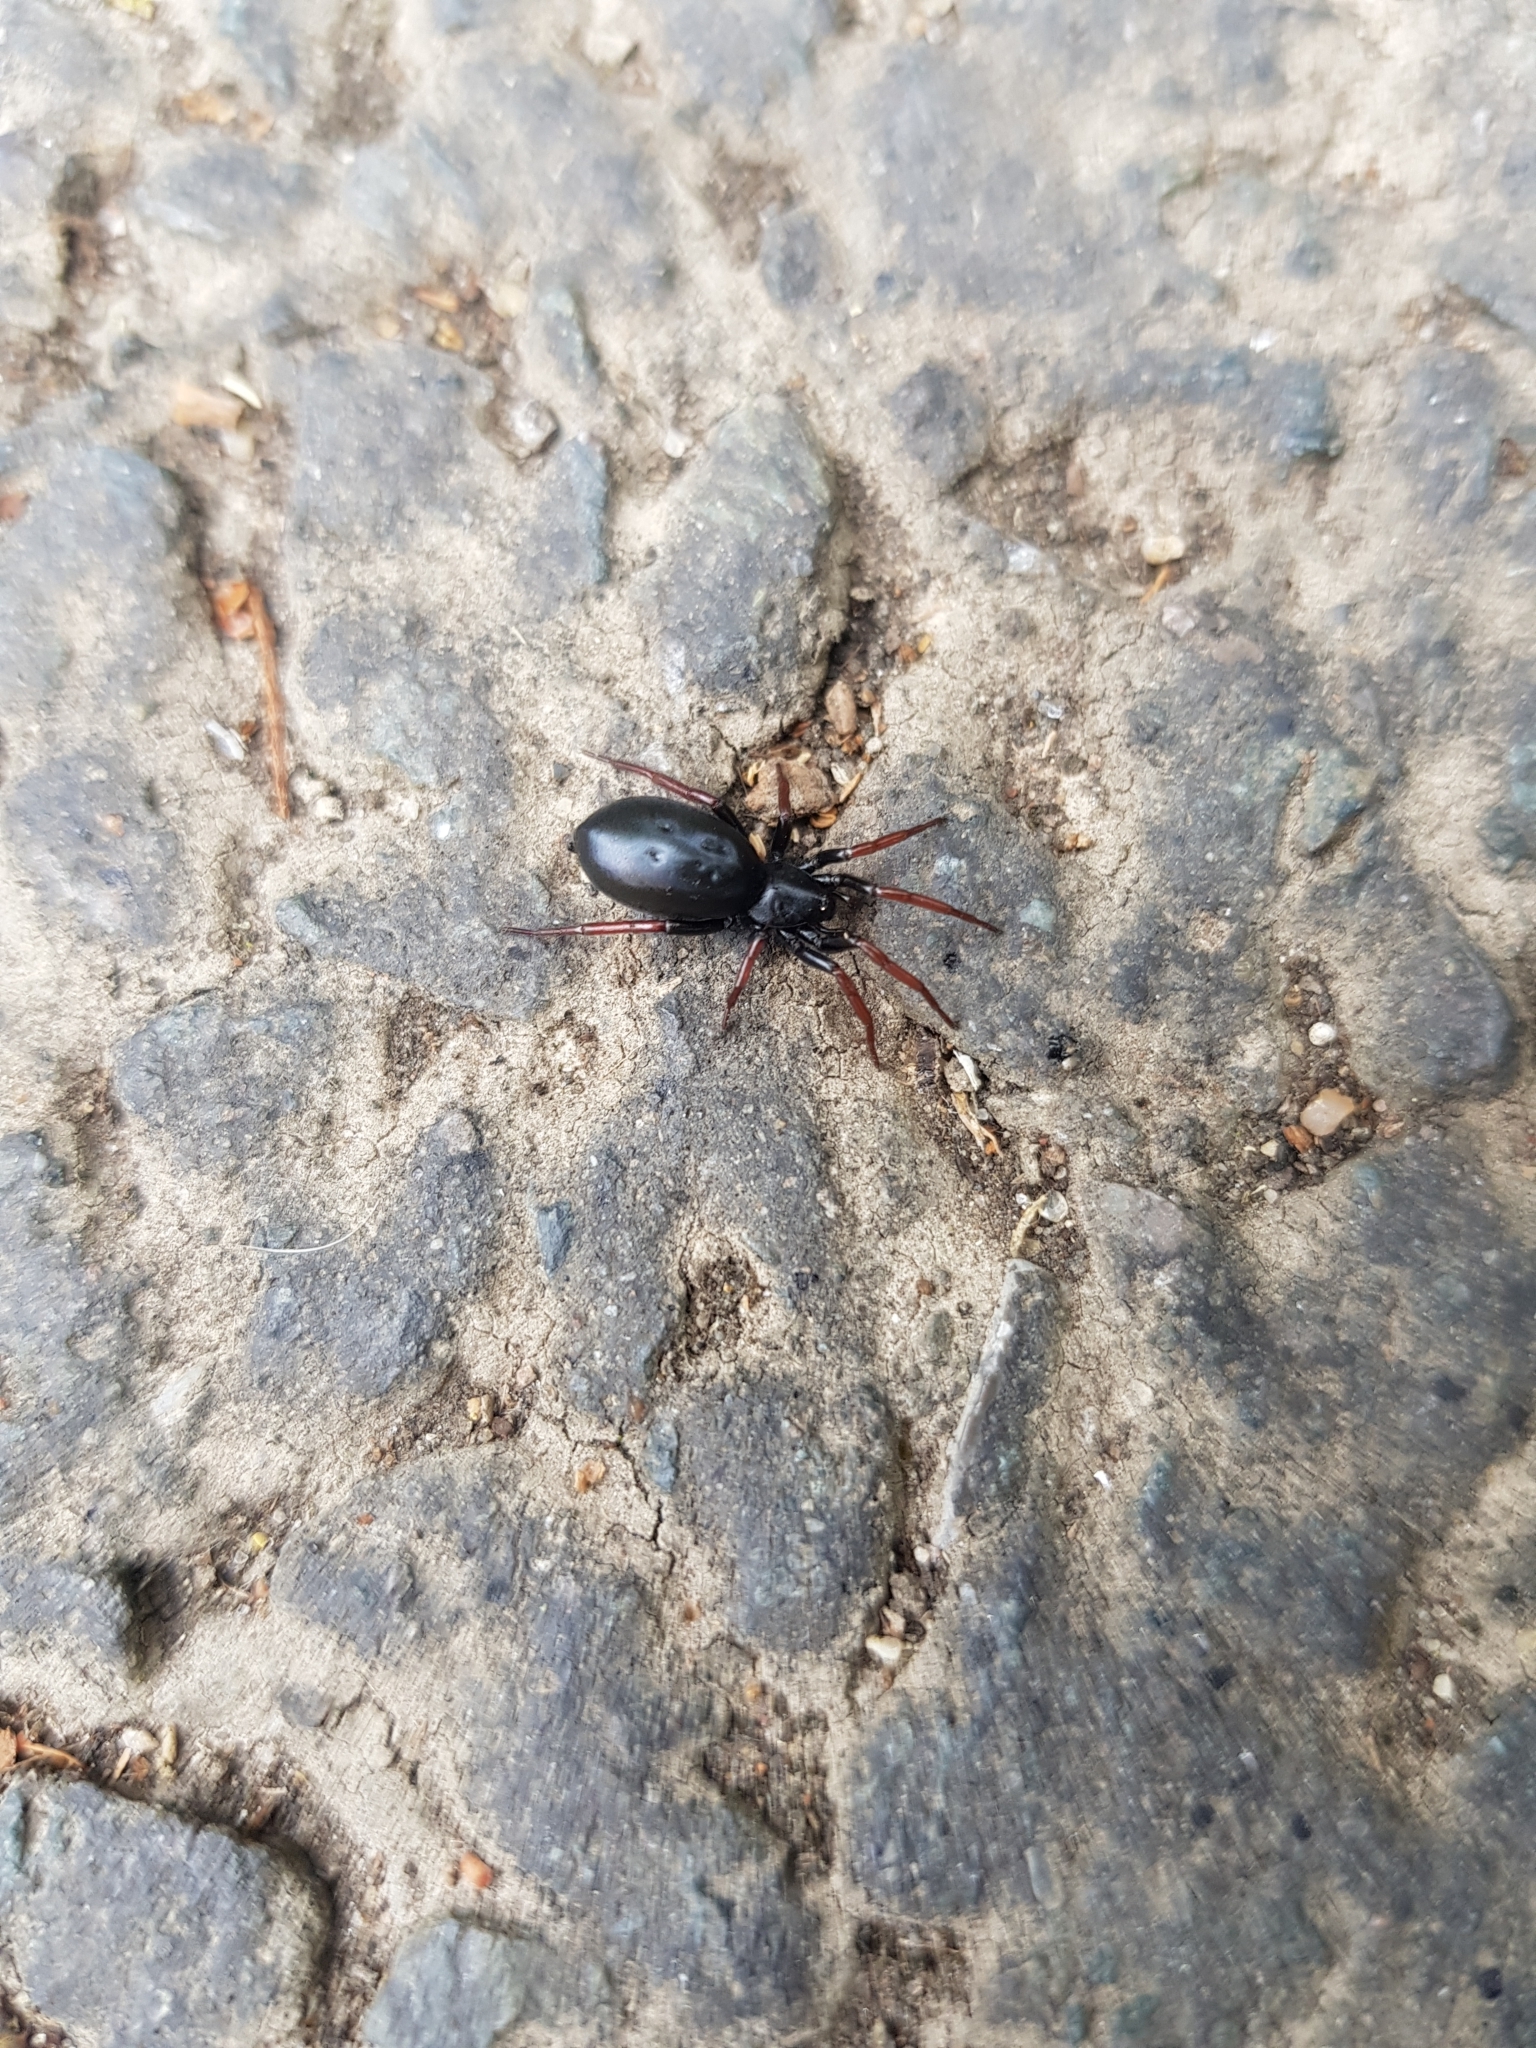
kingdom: Animalia
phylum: Arthropoda
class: Arachnida
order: Araneae
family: Gnaphosidae
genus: Trachyzelotes
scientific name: Trachyzelotes pedestris
